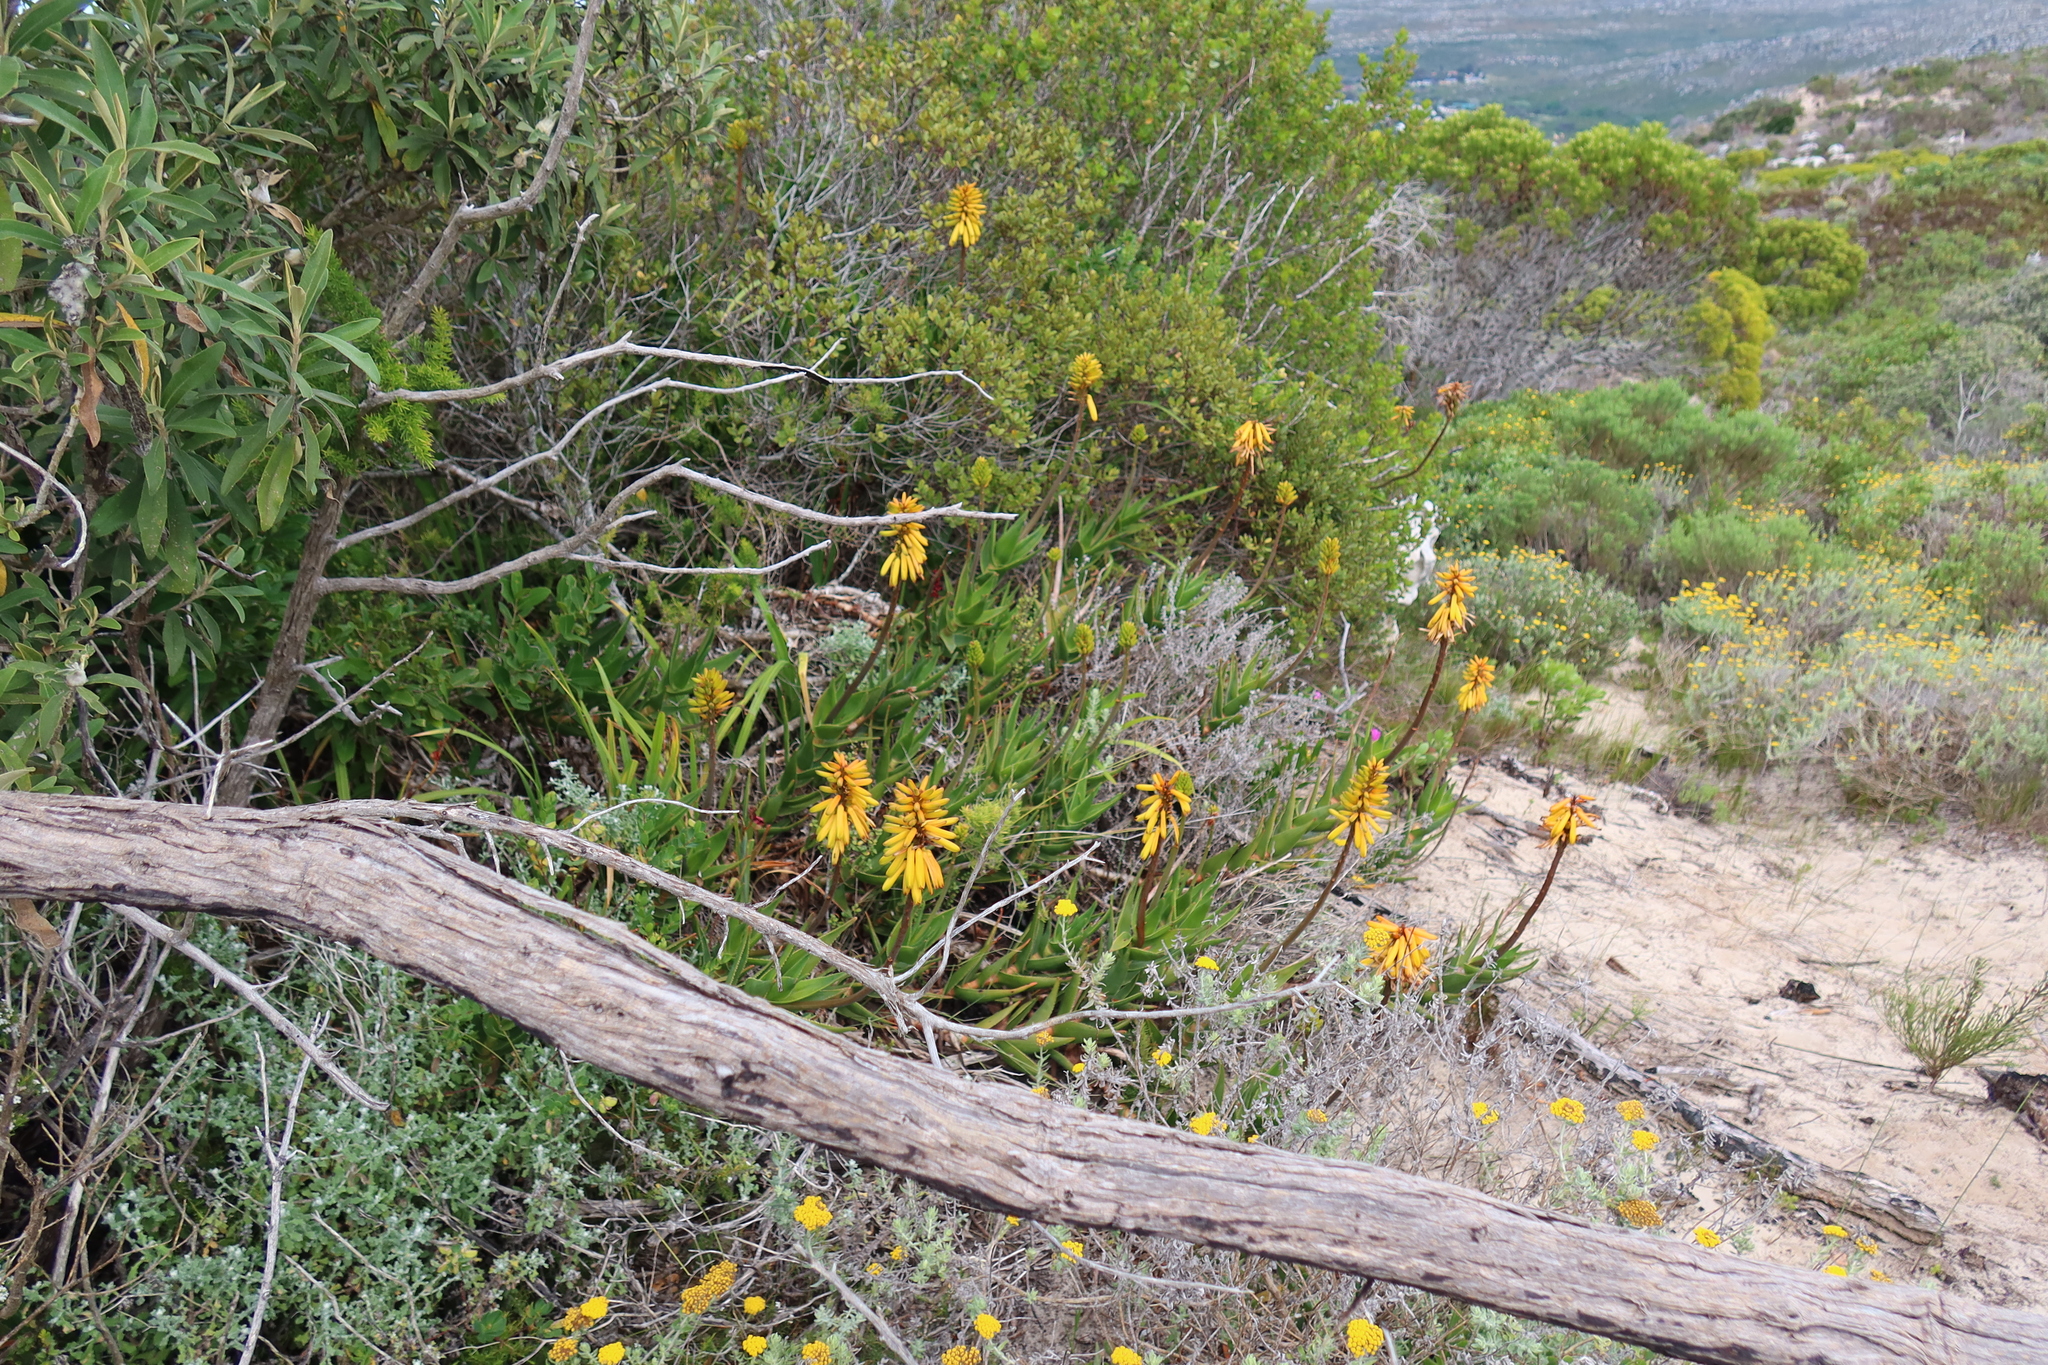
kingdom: Plantae
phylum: Tracheophyta
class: Liliopsida
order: Asparagales
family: Asphodelaceae
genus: Aloiampelos
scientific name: Aloiampelos commixta
